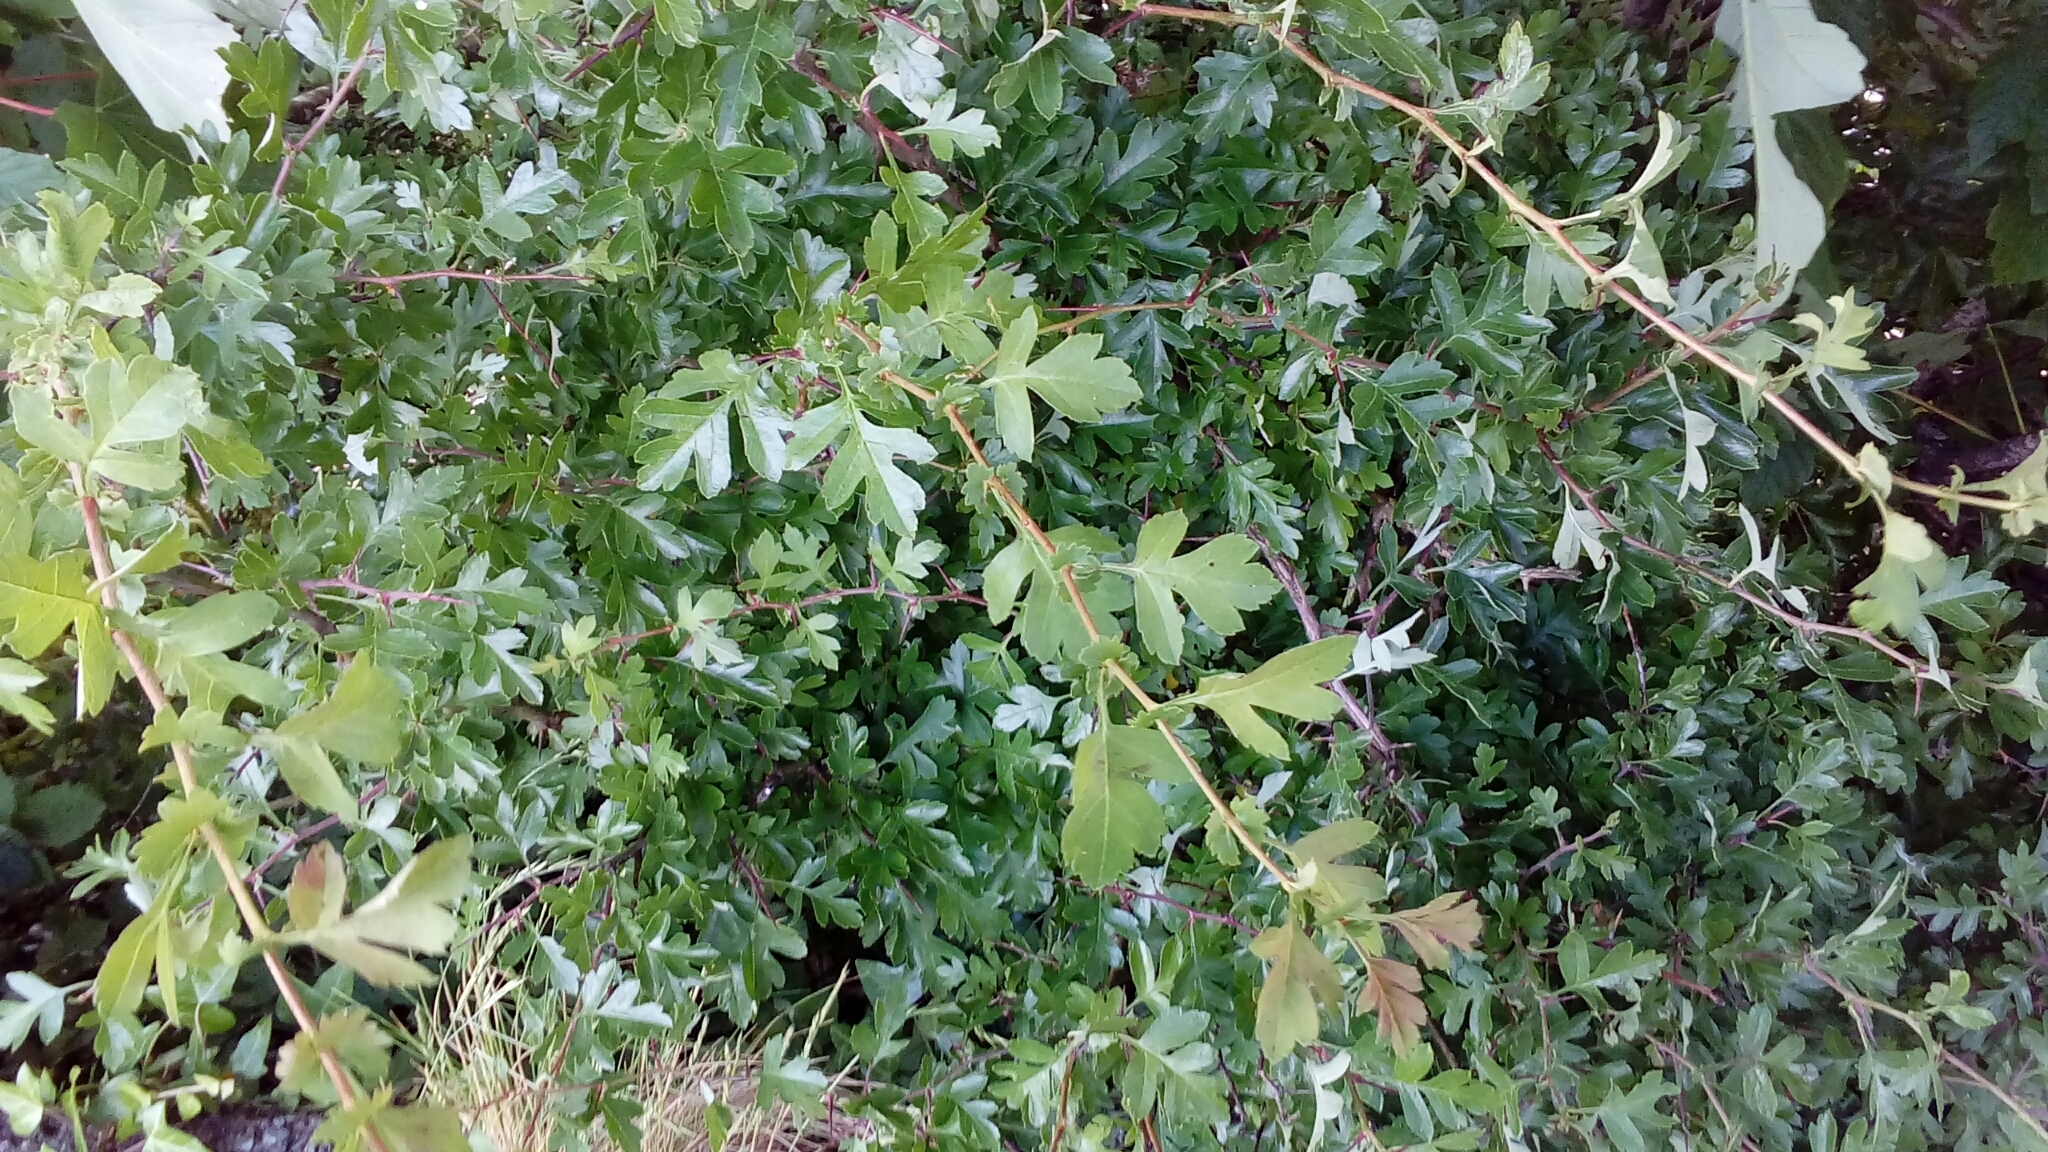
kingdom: Plantae
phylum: Tracheophyta
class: Magnoliopsida
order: Rosales
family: Rosaceae
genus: Crataegus
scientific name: Crataegus monogyna
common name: Hawthorn
